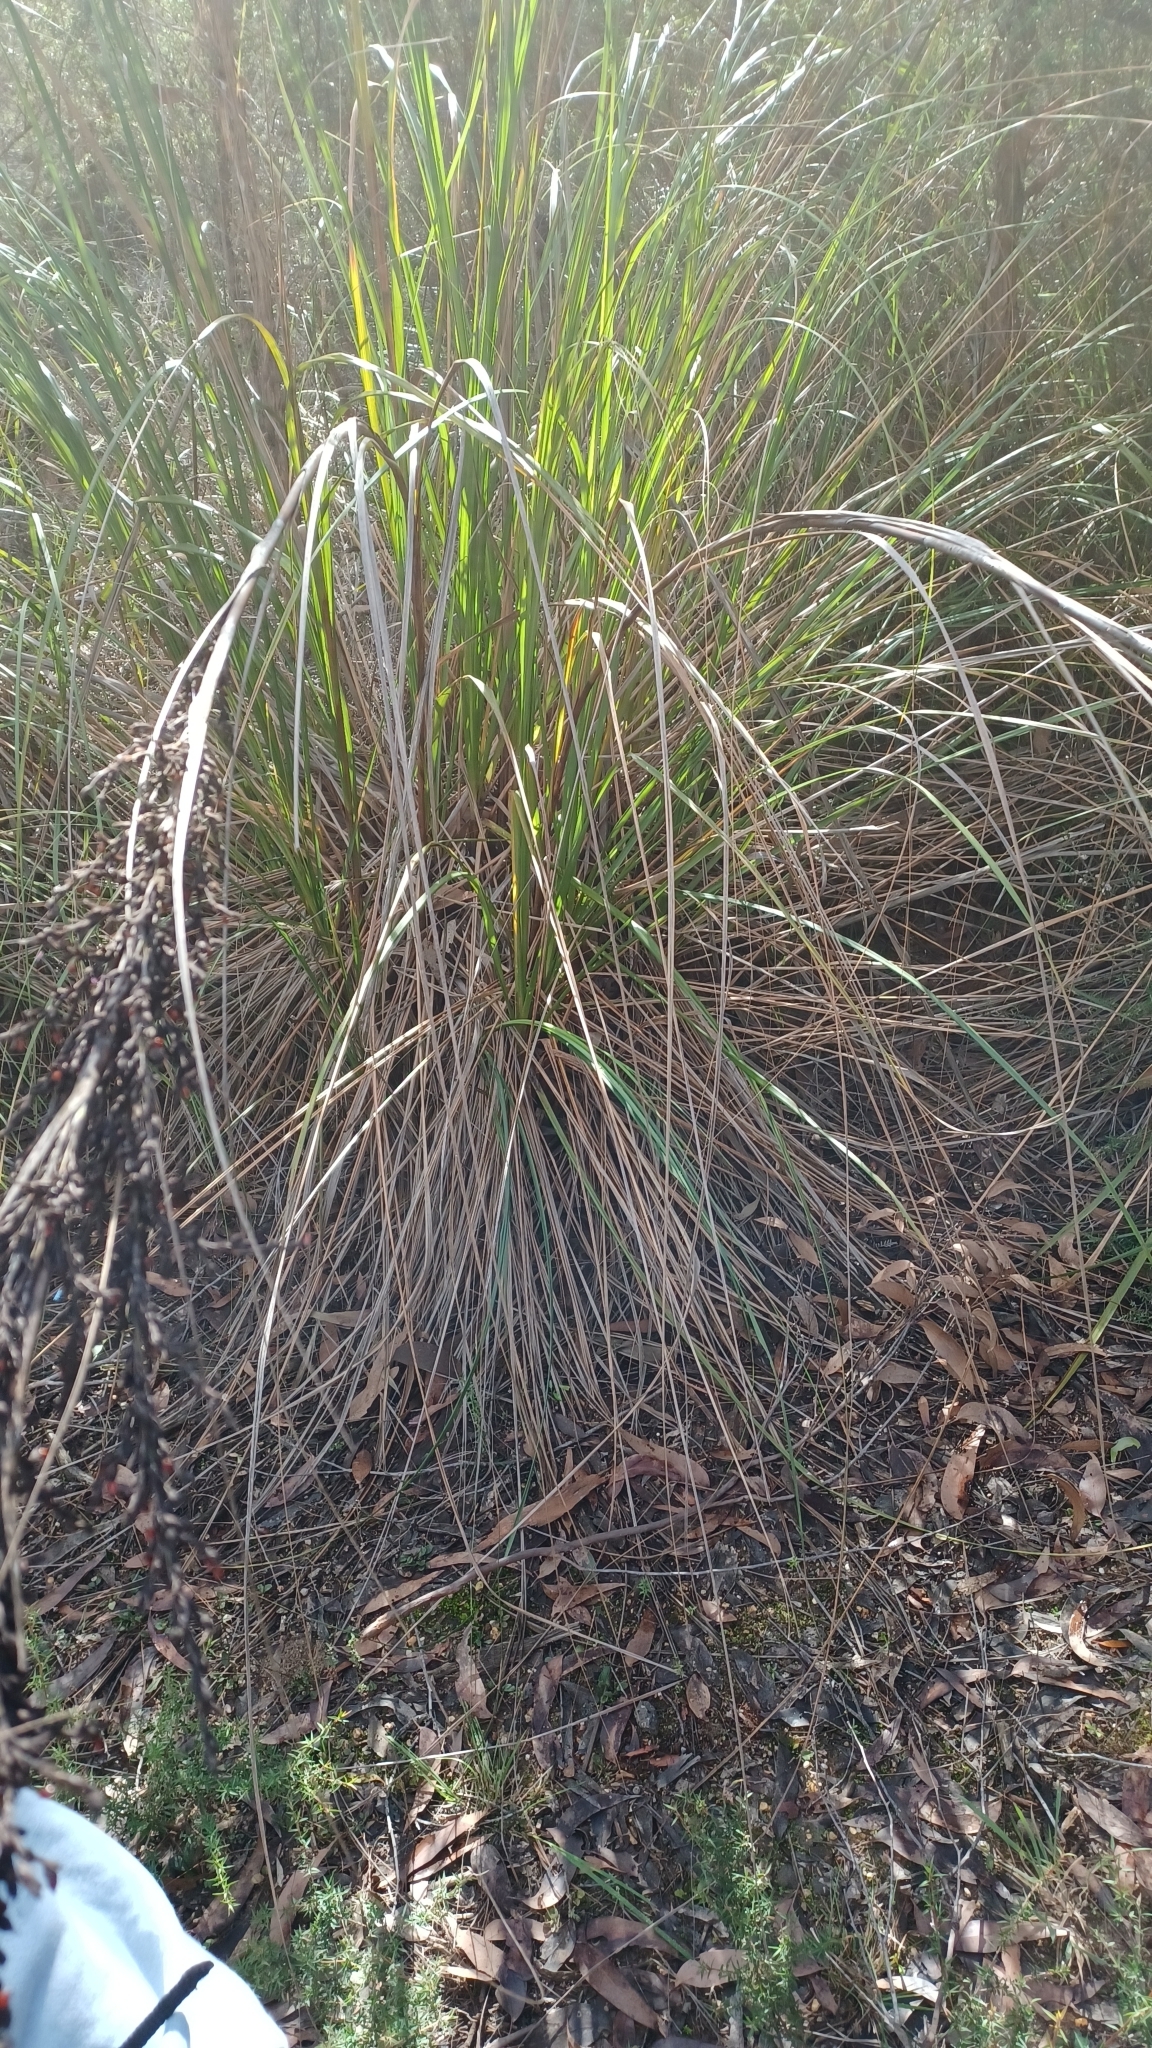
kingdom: Plantae
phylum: Tracheophyta
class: Liliopsida
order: Poales
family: Cyperaceae
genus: Gahnia
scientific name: Gahnia sieberiana
